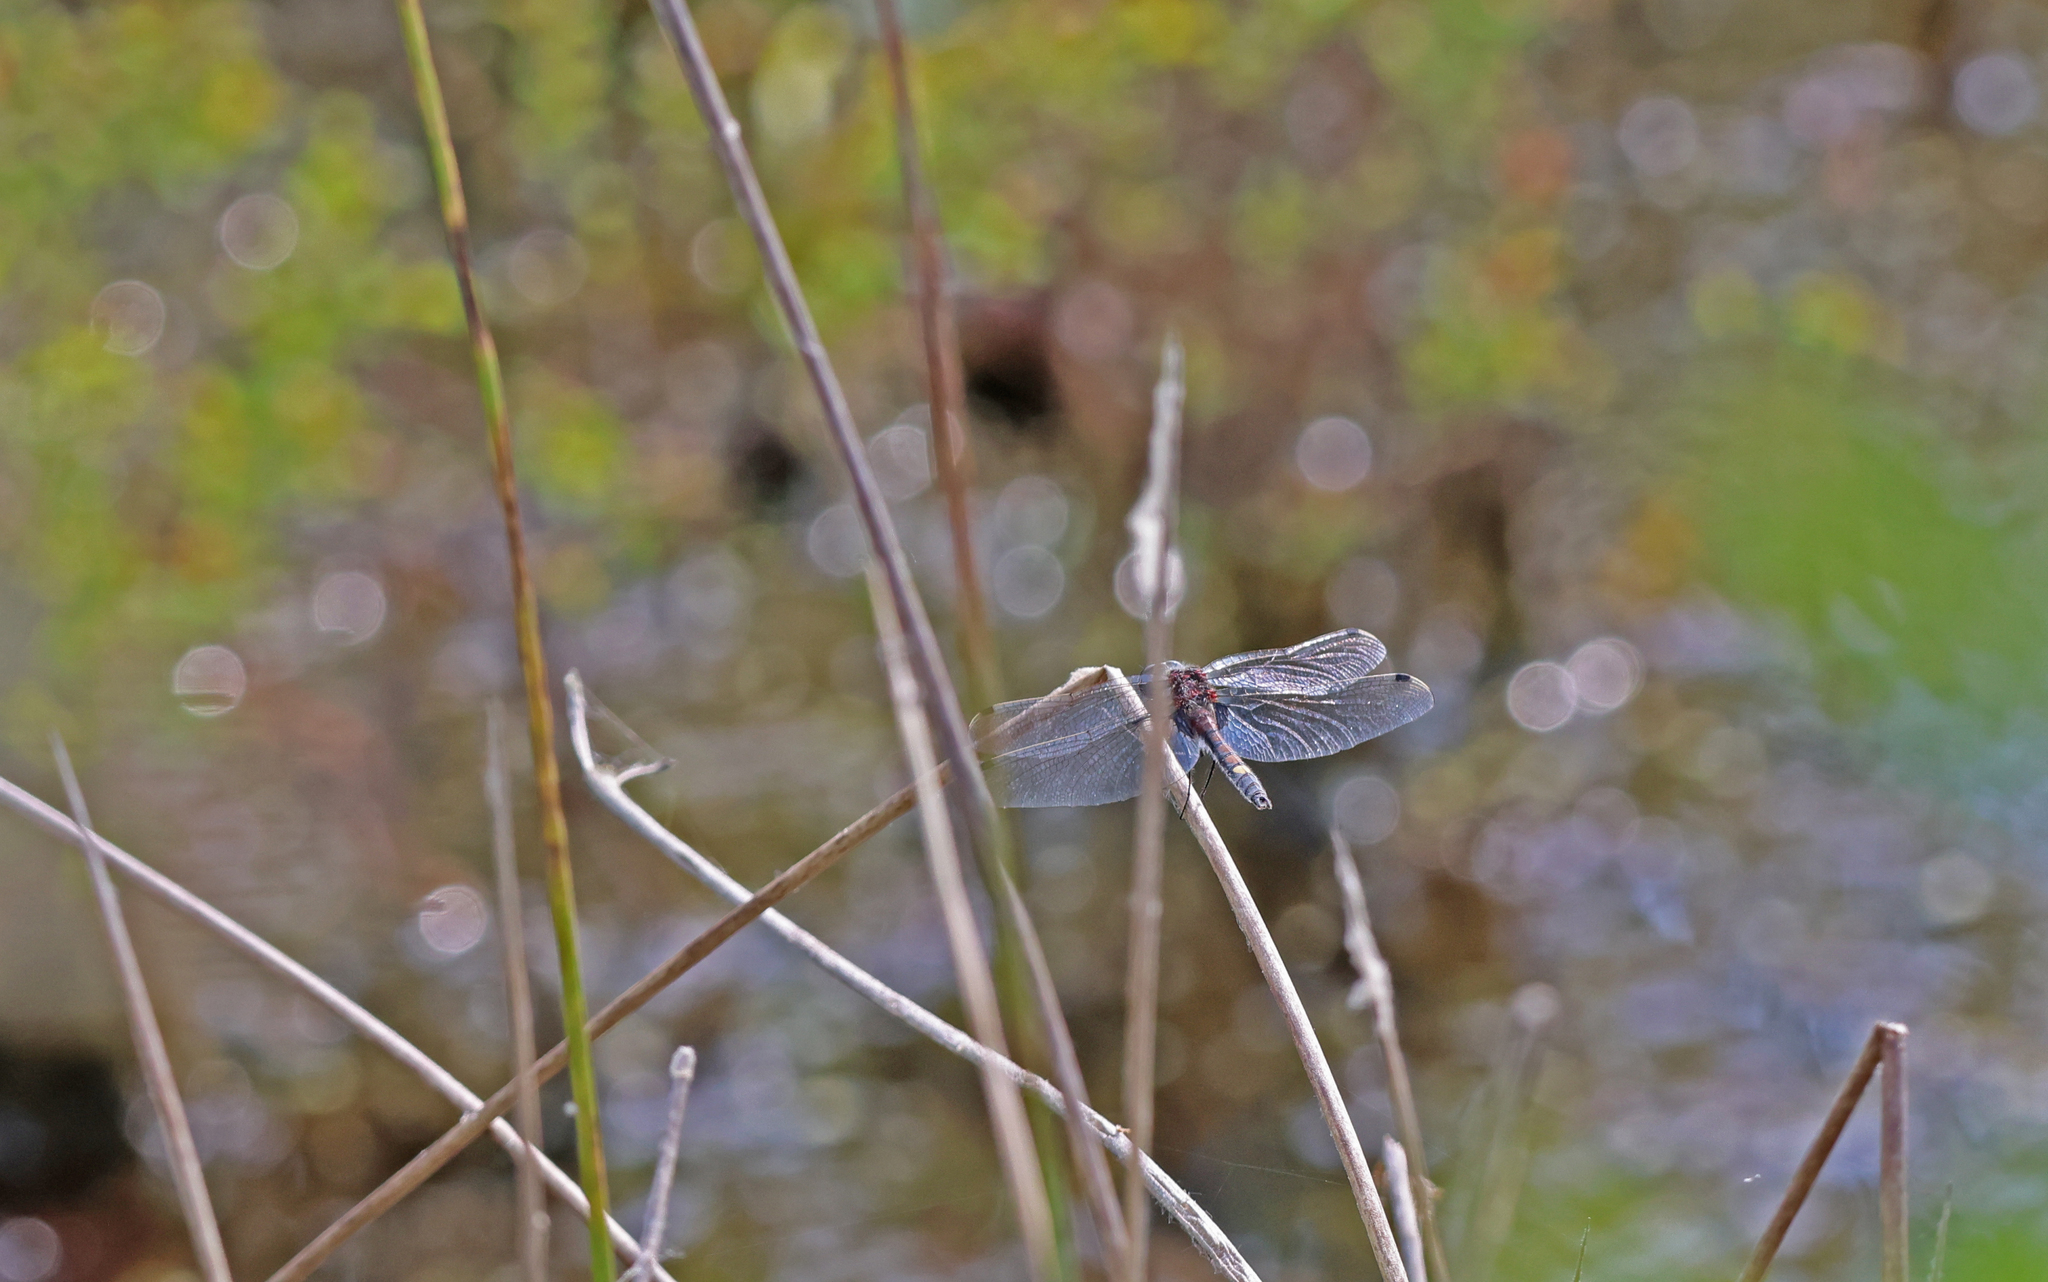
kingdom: Animalia
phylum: Arthropoda
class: Insecta
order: Odonata
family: Libellulidae
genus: Leucorrhinia
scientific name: Leucorrhinia pectoralis
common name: Yellow-spotted whiteface
